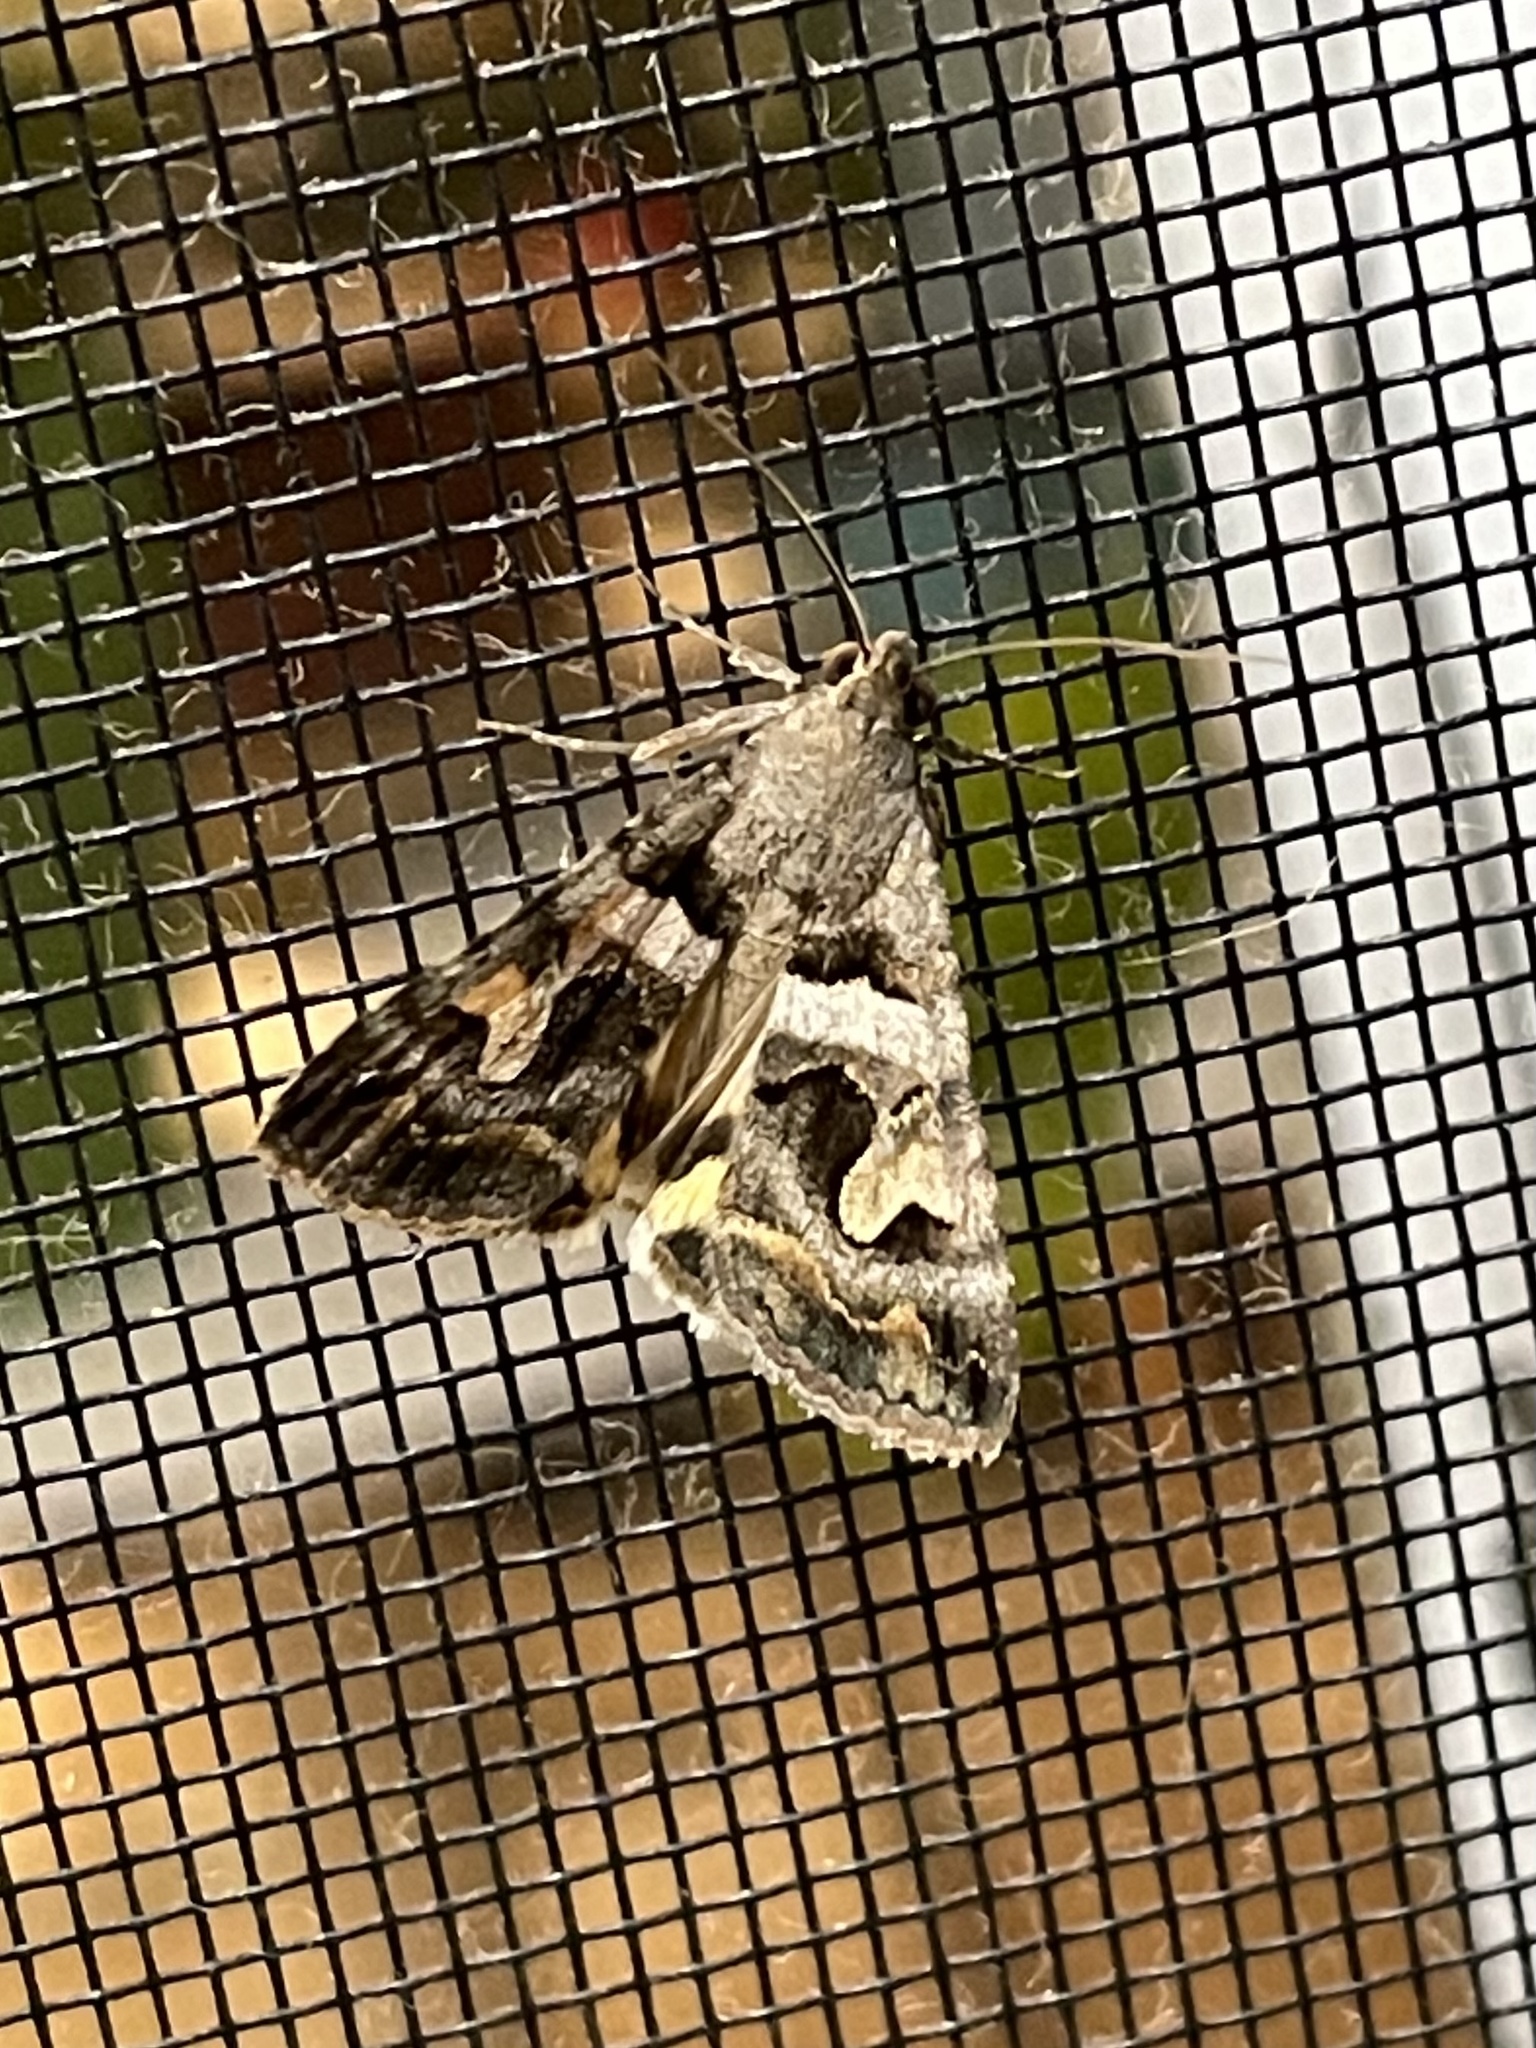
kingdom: Animalia
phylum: Arthropoda
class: Insecta
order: Lepidoptera
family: Erebidae
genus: Bulia
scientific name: Bulia deducta
